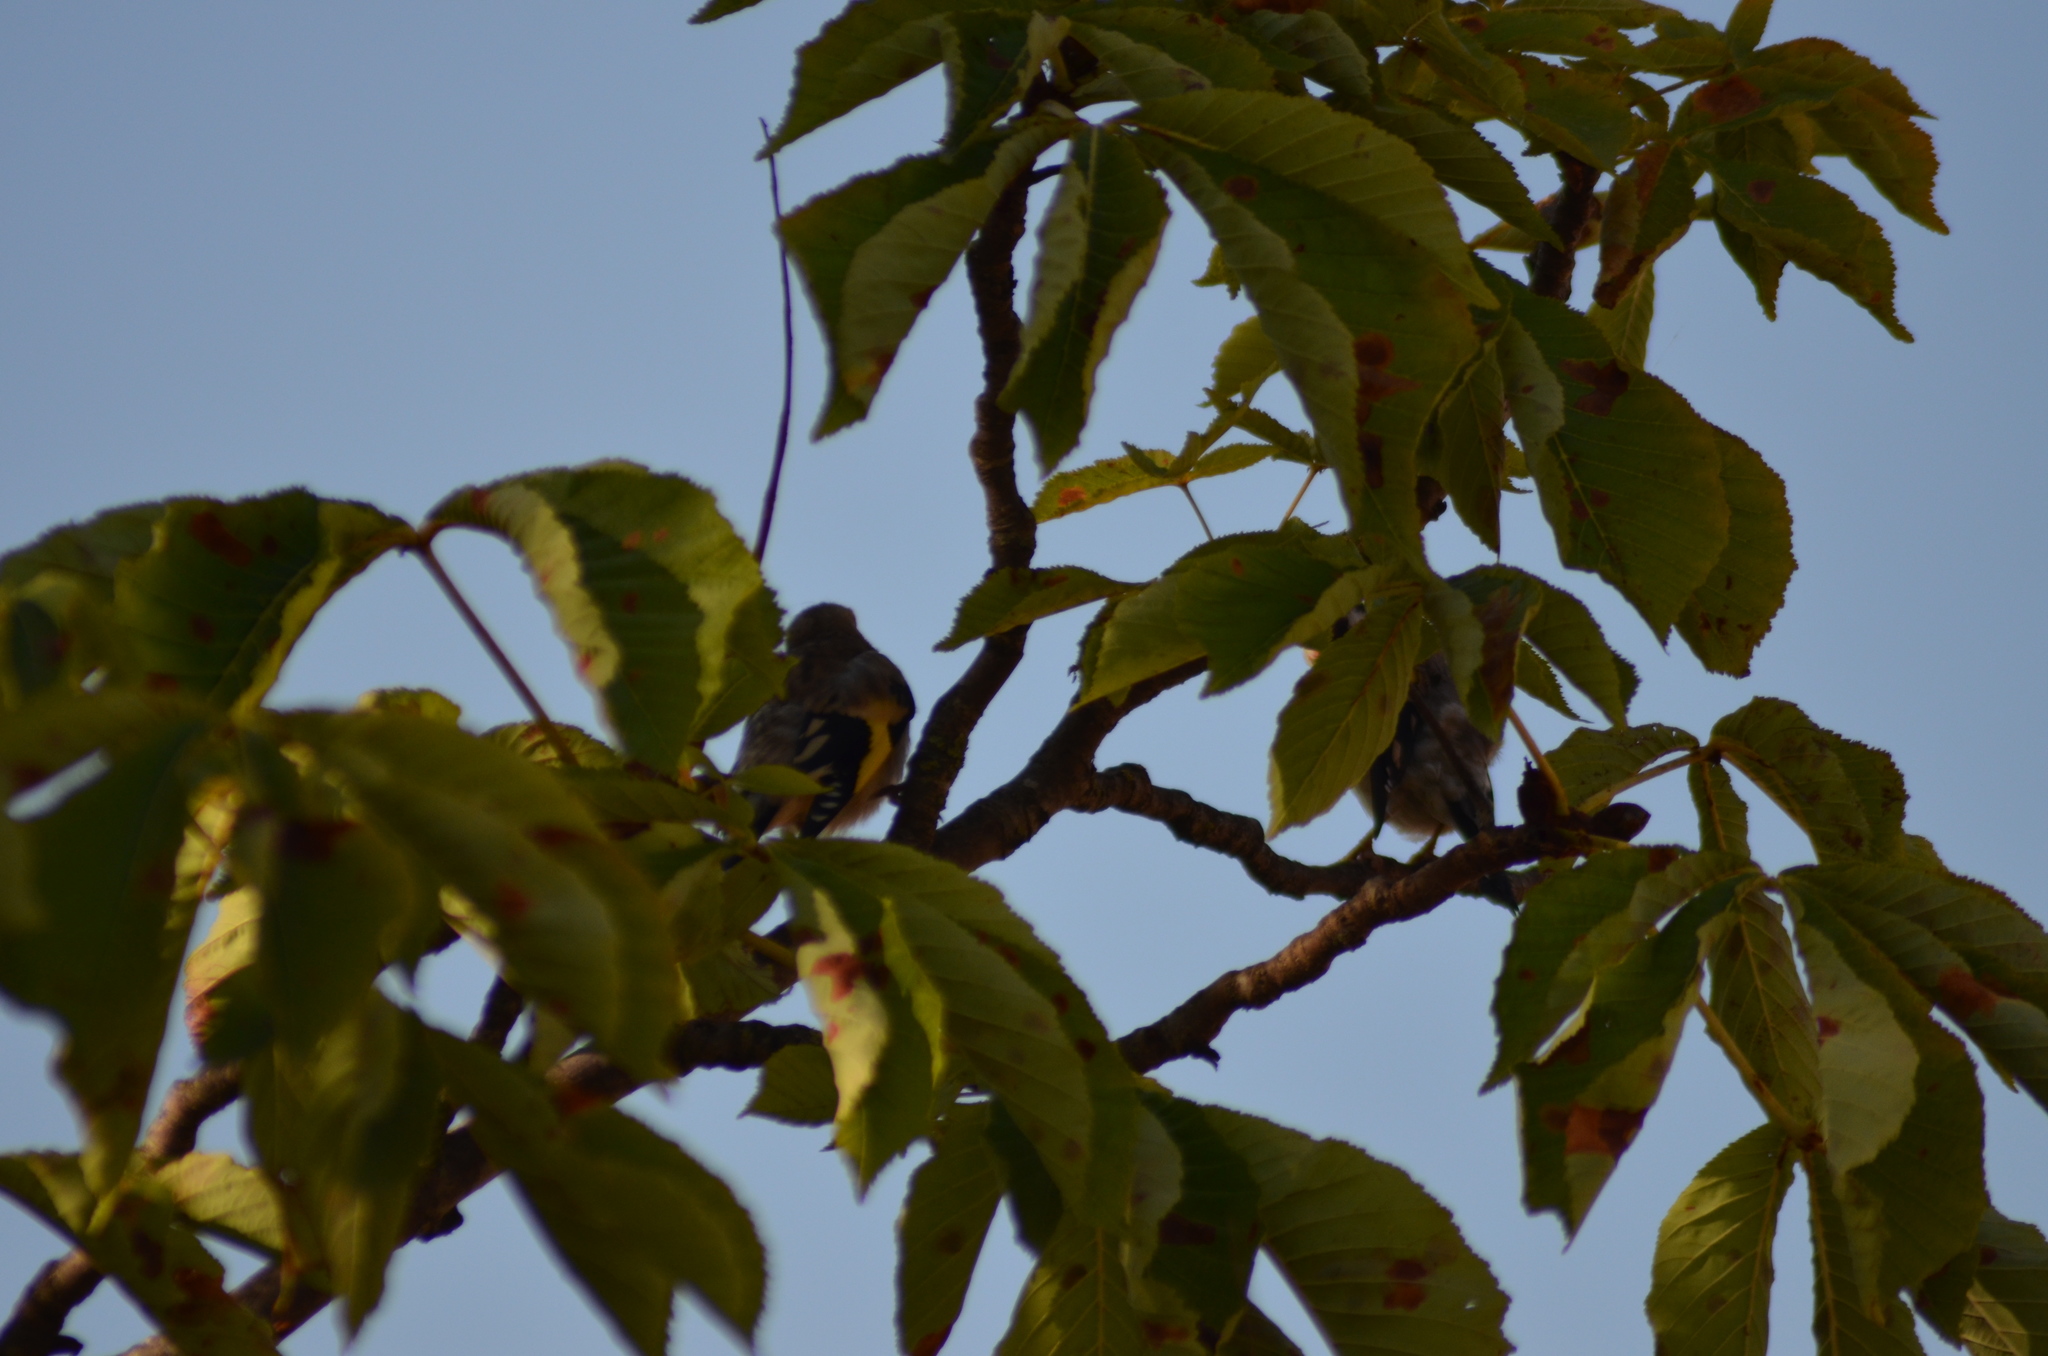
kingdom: Animalia
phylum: Chordata
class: Aves
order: Passeriformes
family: Fringillidae
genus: Carduelis
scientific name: Carduelis carduelis
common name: European goldfinch
